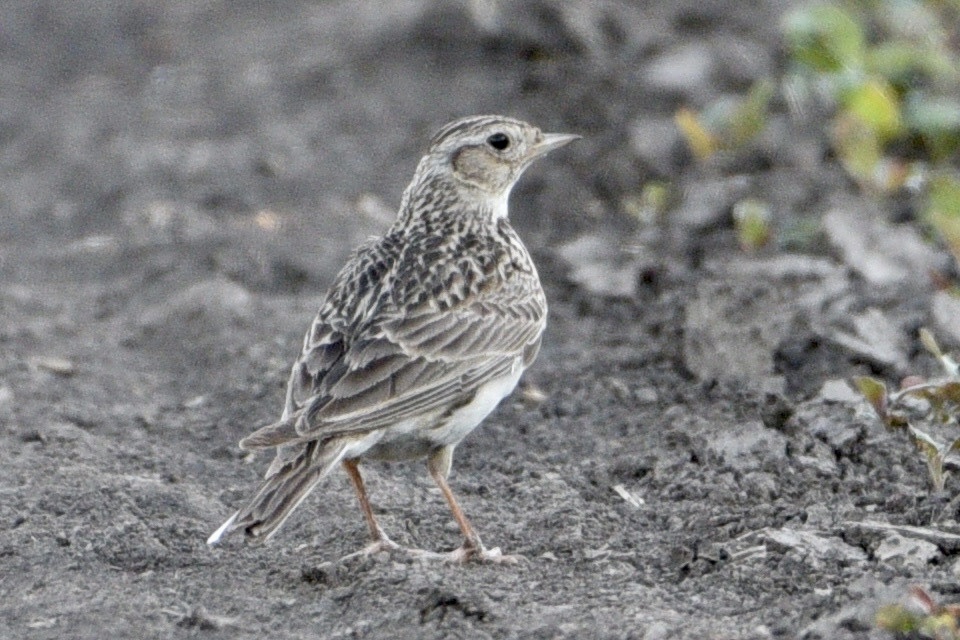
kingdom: Animalia
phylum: Chordata
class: Aves
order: Passeriformes
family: Alaudidae
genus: Alauda
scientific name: Alauda arvensis
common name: Eurasian skylark
